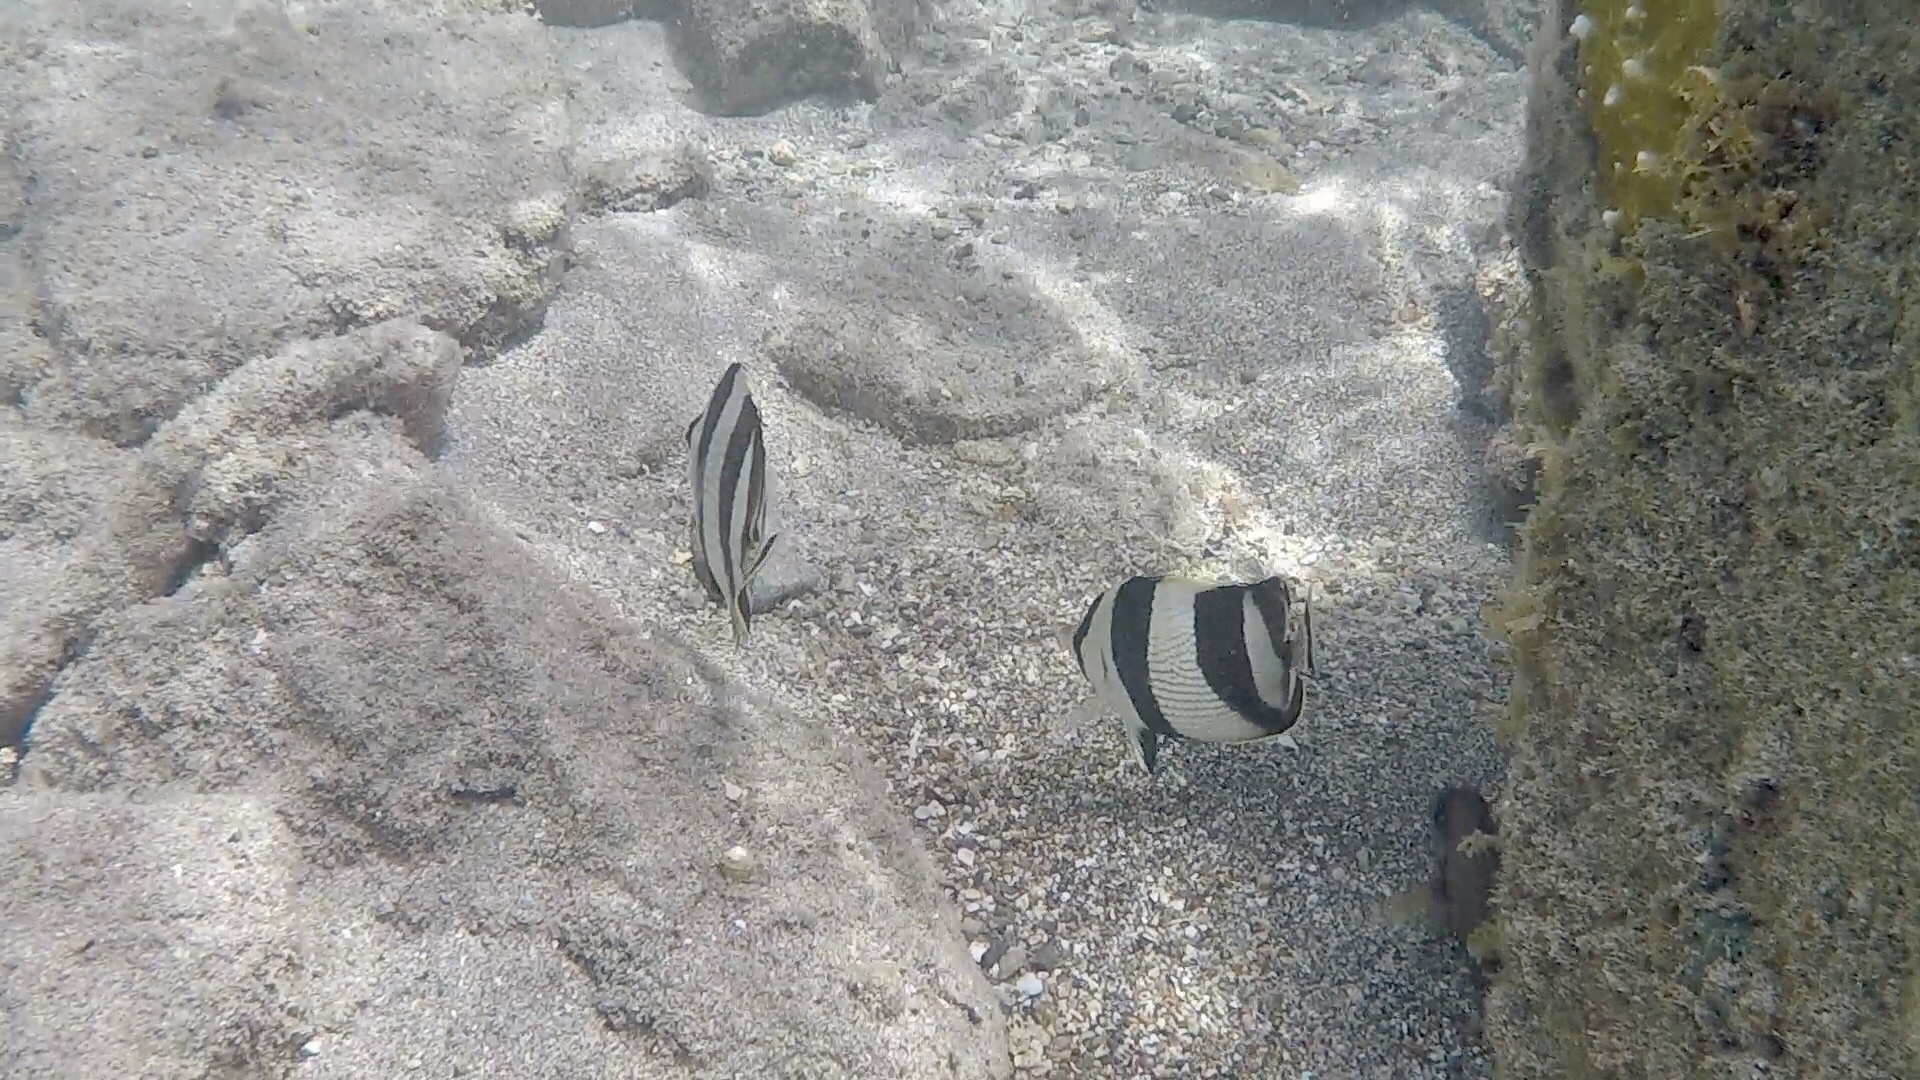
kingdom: Animalia
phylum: Chordata
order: Perciformes
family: Chaetodontidae
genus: Chaetodon
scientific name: Chaetodon striatus
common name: Banded butterflyfish
